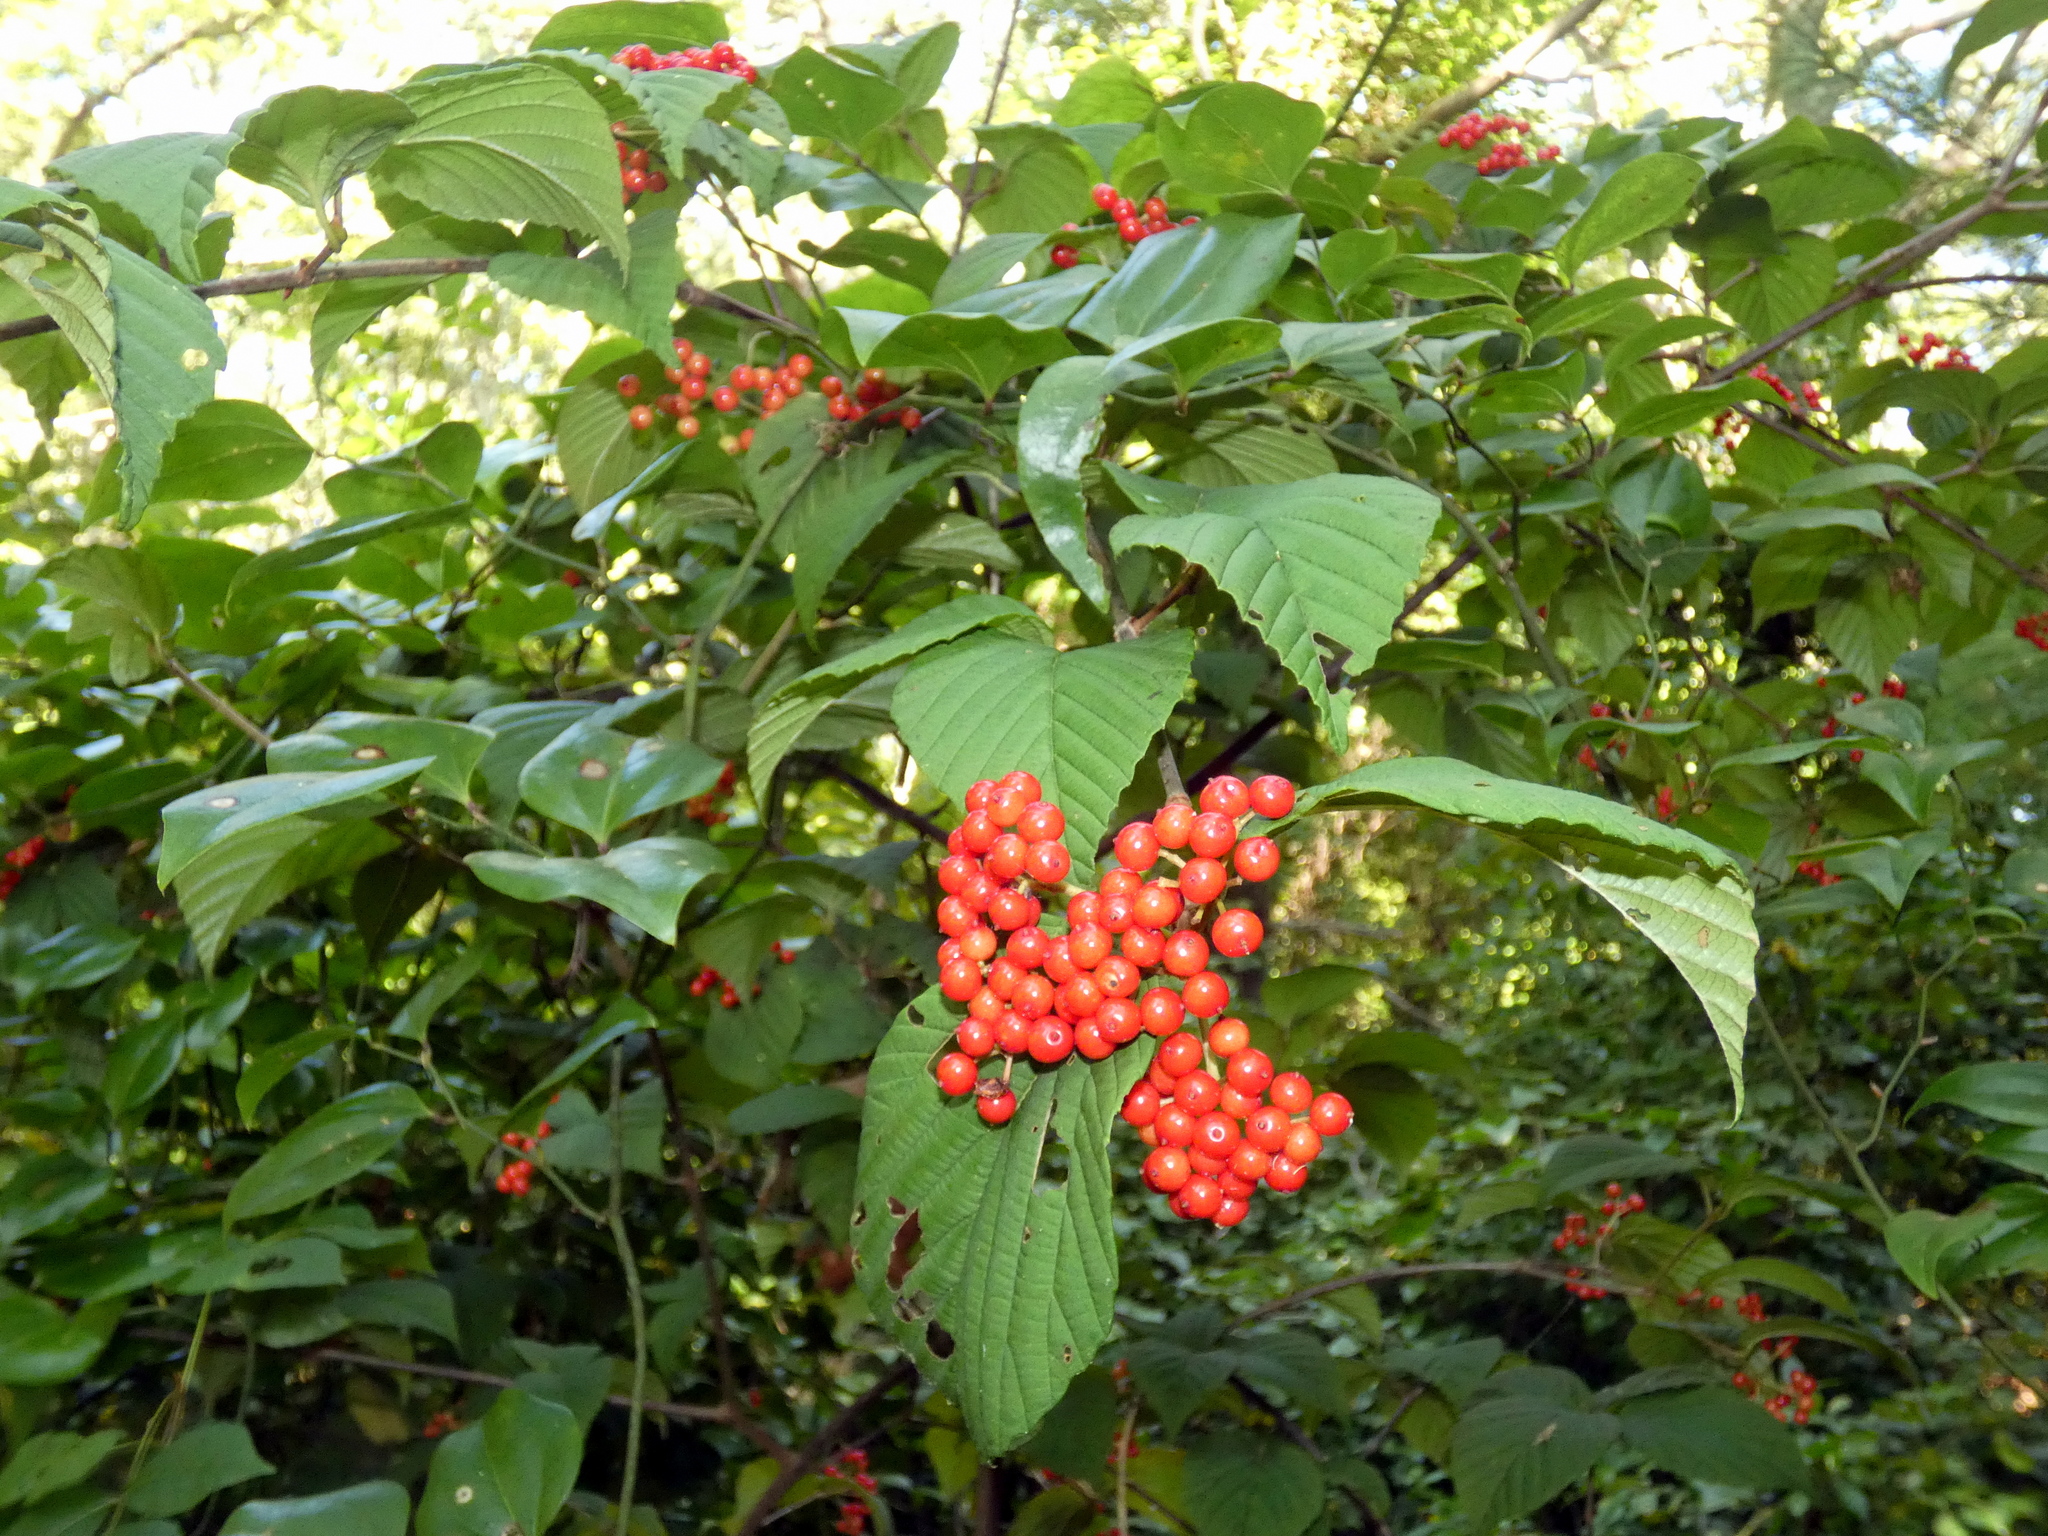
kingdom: Plantae
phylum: Tracheophyta
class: Magnoliopsida
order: Dipsacales
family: Viburnaceae
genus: Viburnum
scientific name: Viburnum wrightii
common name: Wright's viburnum
